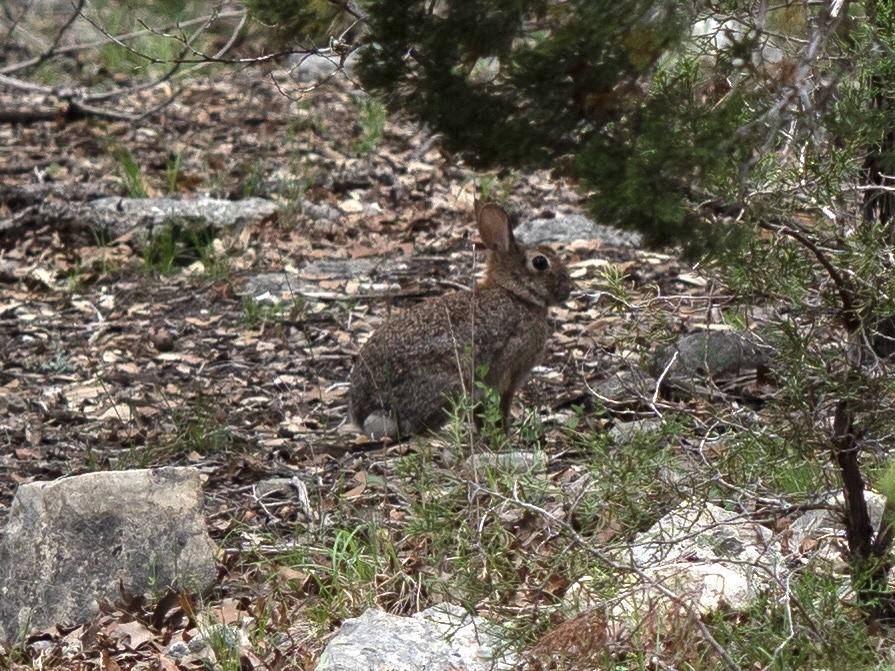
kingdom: Animalia
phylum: Chordata
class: Mammalia
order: Lagomorpha
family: Leporidae
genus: Sylvilagus
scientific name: Sylvilagus floridanus
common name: Eastern cottontail
